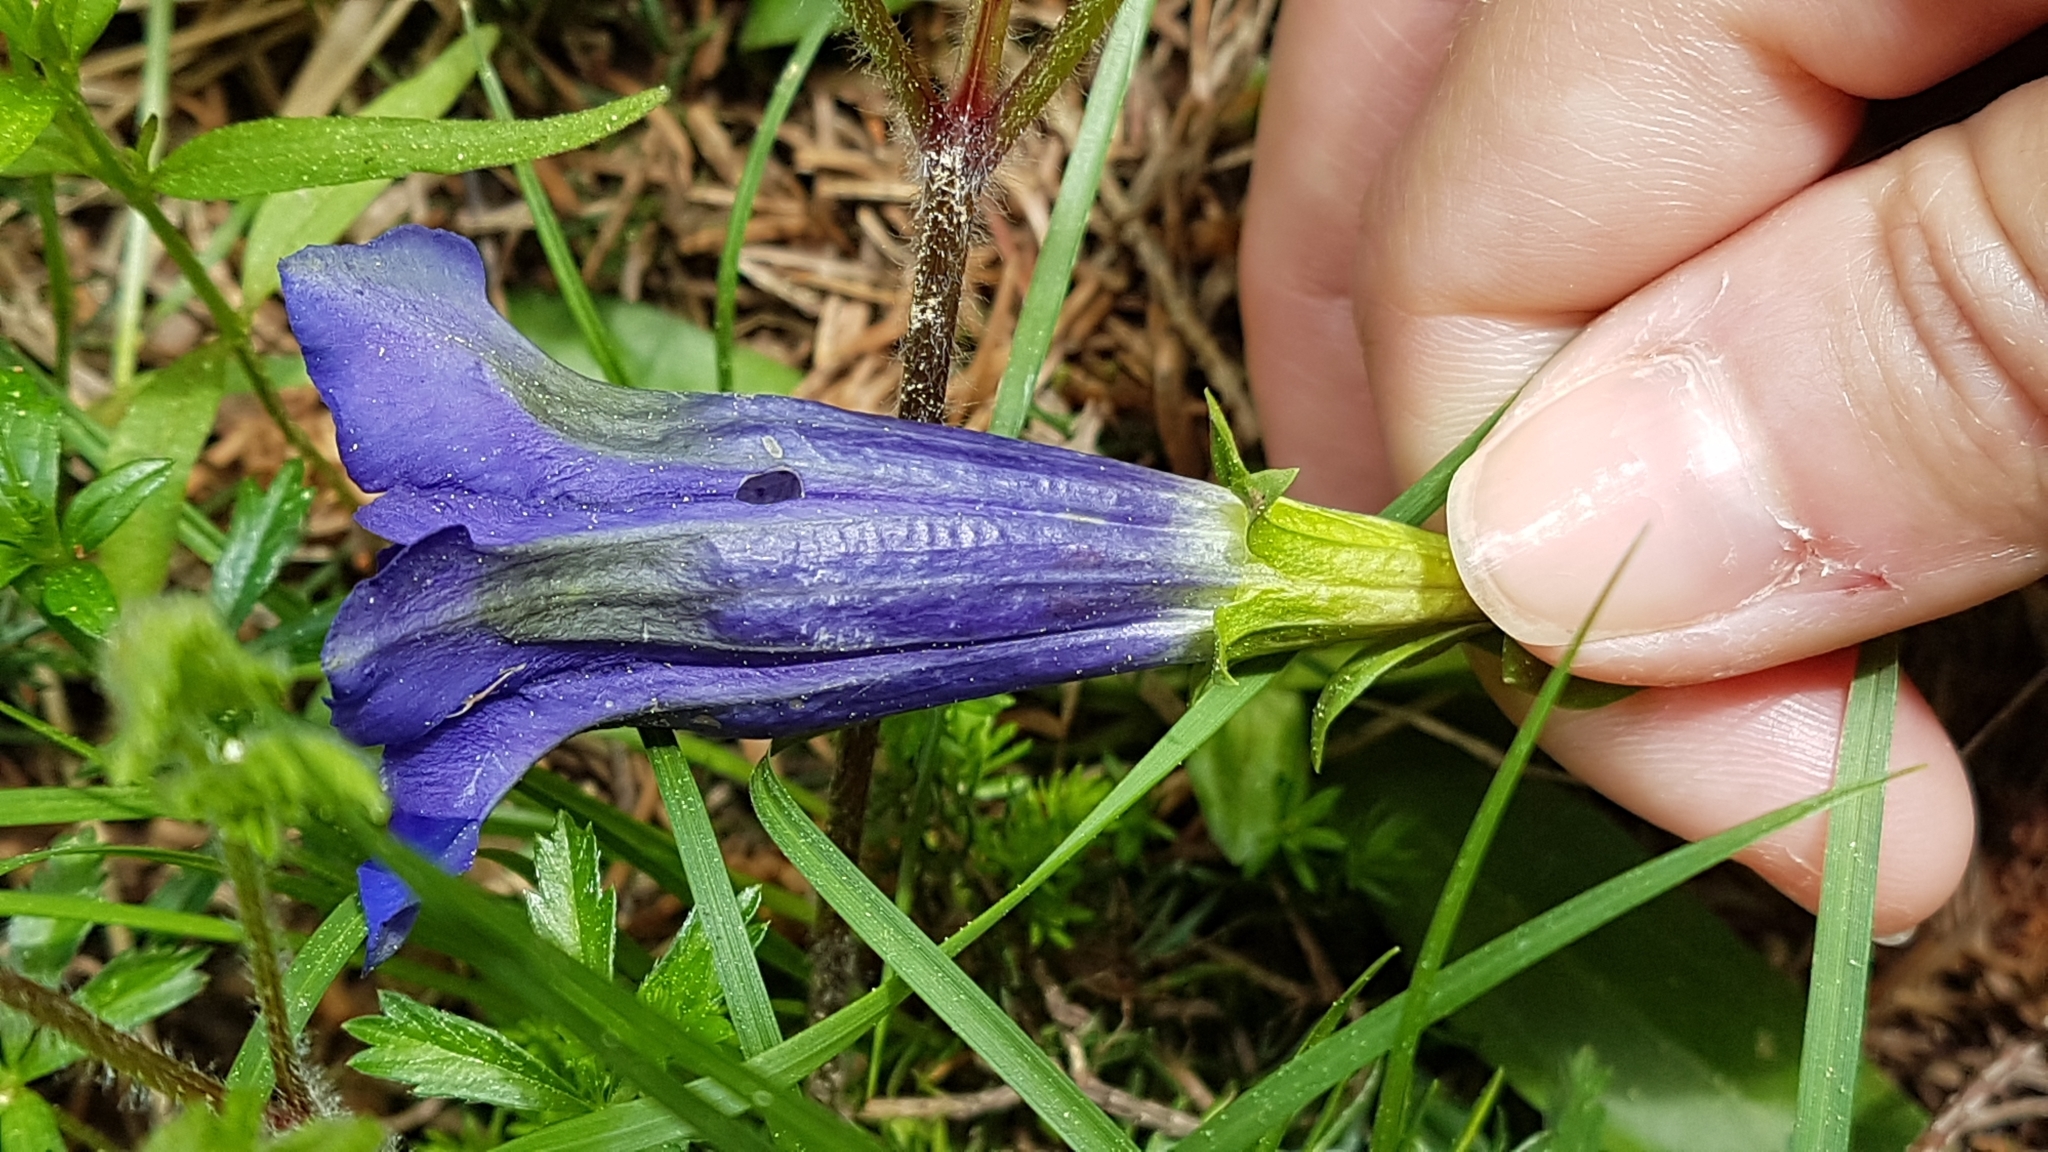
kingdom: Plantae
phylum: Tracheophyta
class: Magnoliopsida
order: Gentianales
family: Gentianaceae
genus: Gentiana
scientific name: Gentiana acaulis
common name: Trumpet gentian
